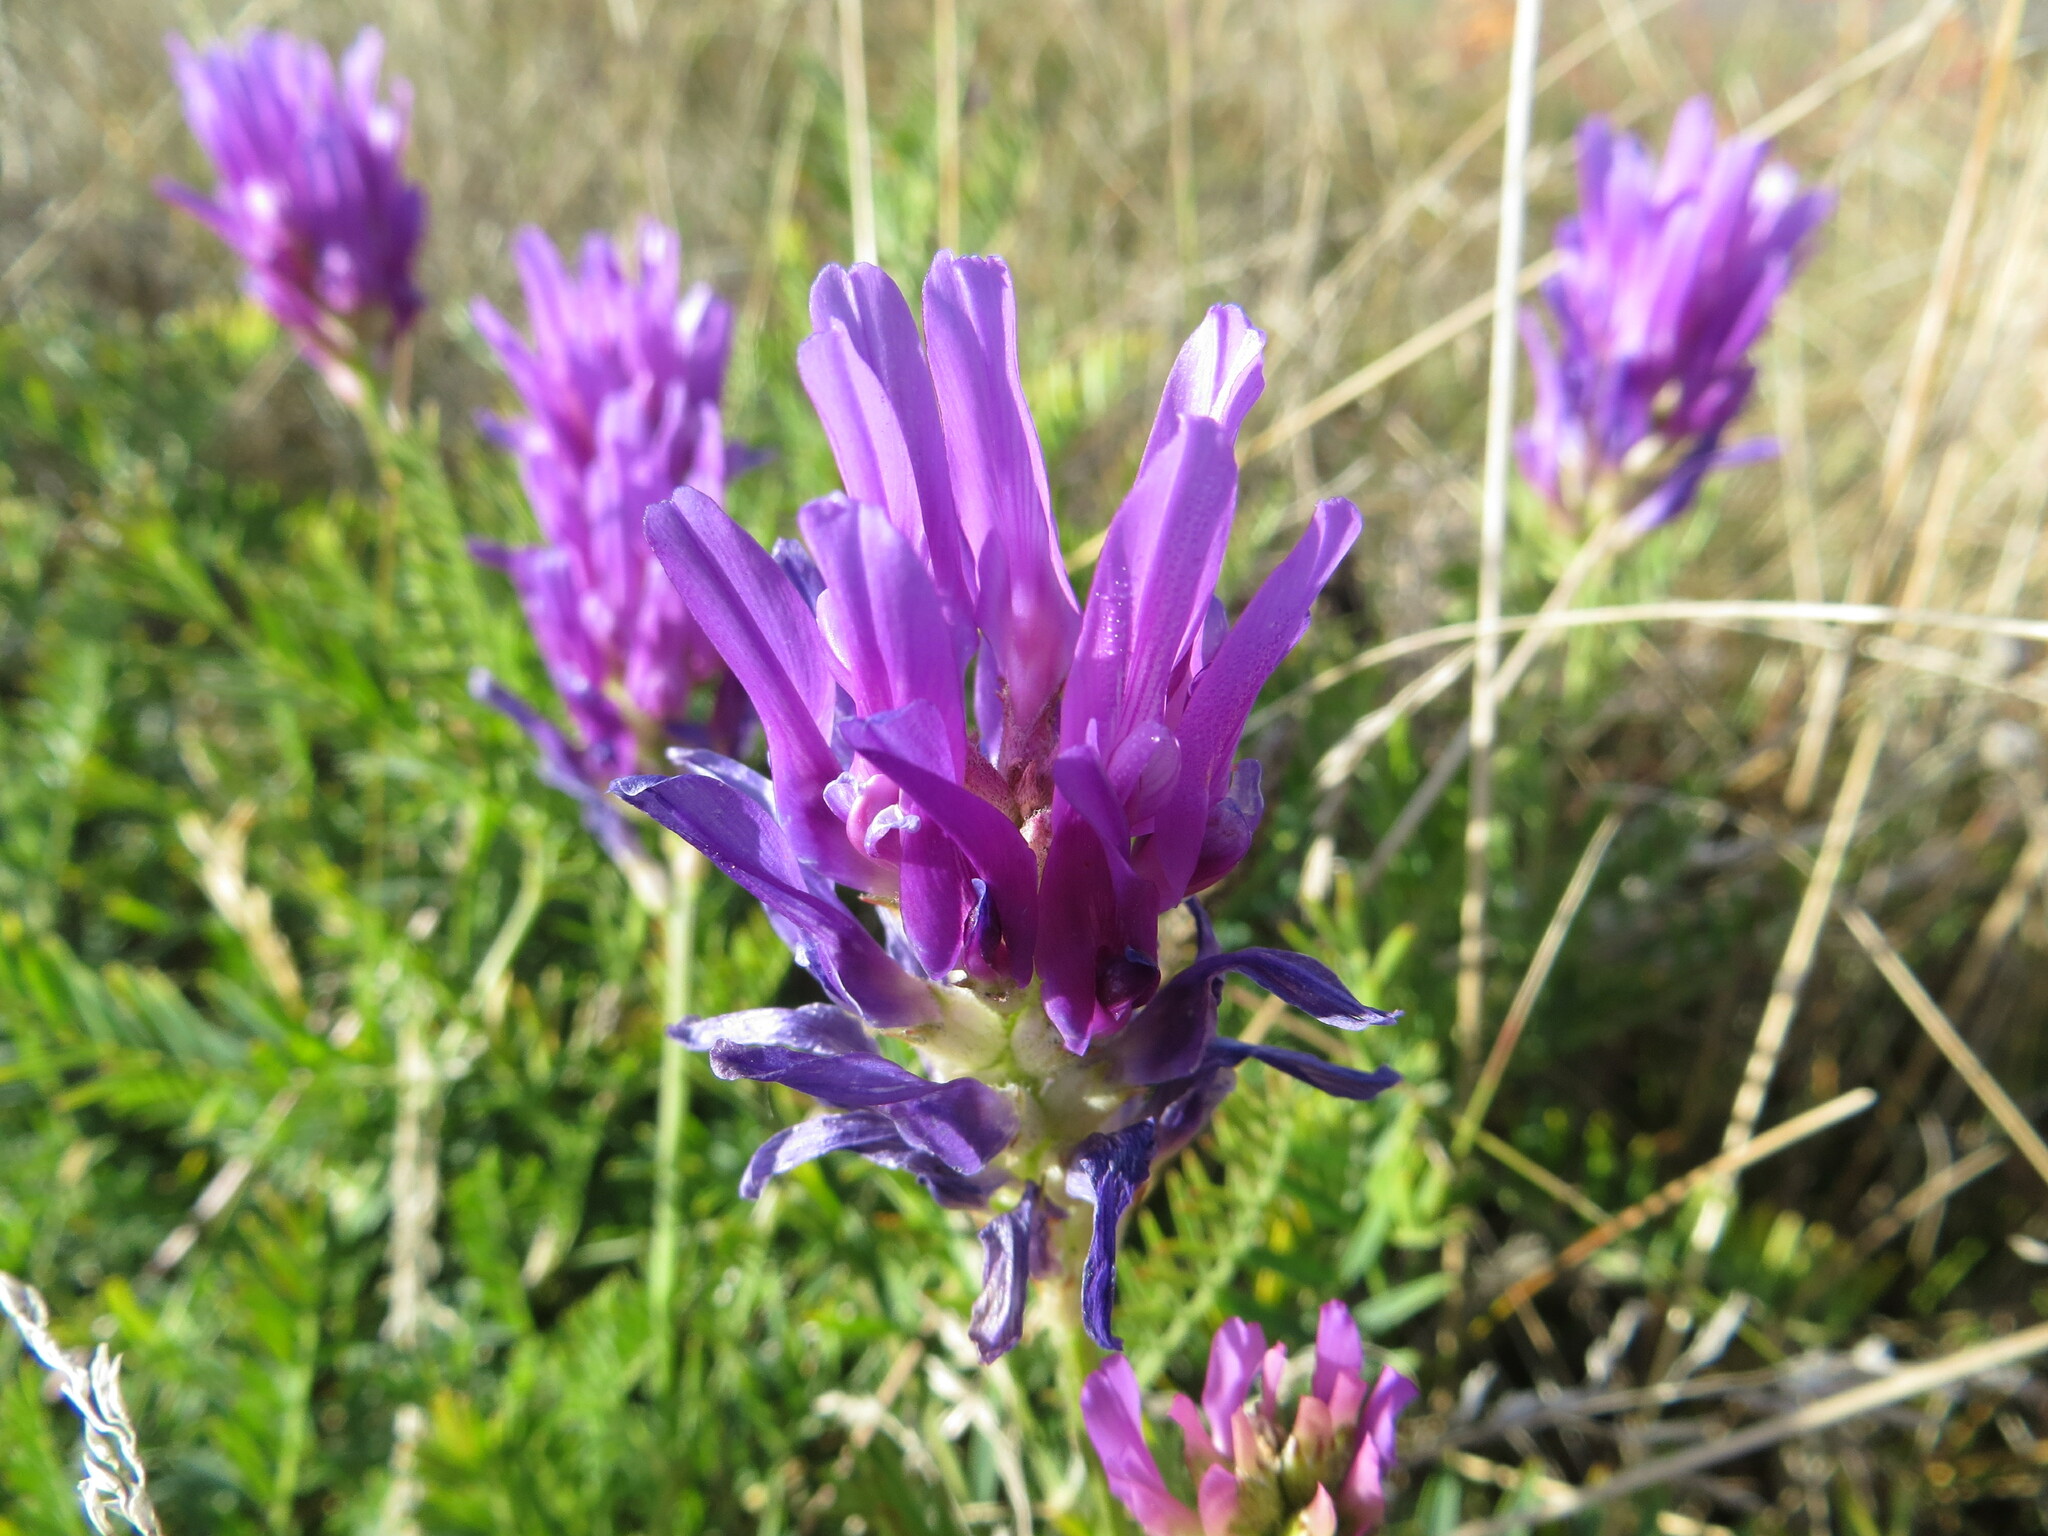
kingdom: Plantae
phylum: Tracheophyta
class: Magnoliopsida
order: Fabales
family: Fabaceae
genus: Astragalus
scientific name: Astragalus onobrychis
